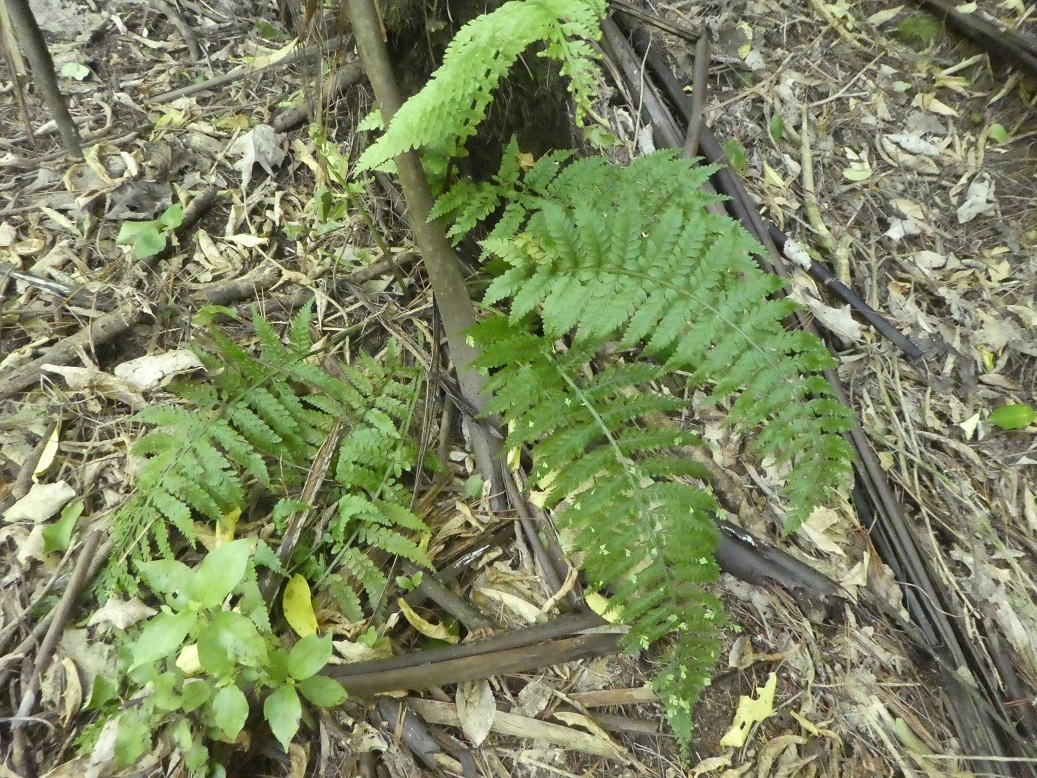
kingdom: Plantae
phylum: Tracheophyta
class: Polypodiopsida
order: Polypodiales
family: Aspleniaceae
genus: Asplenium
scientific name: Asplenium bulbiferum
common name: Mother fern
